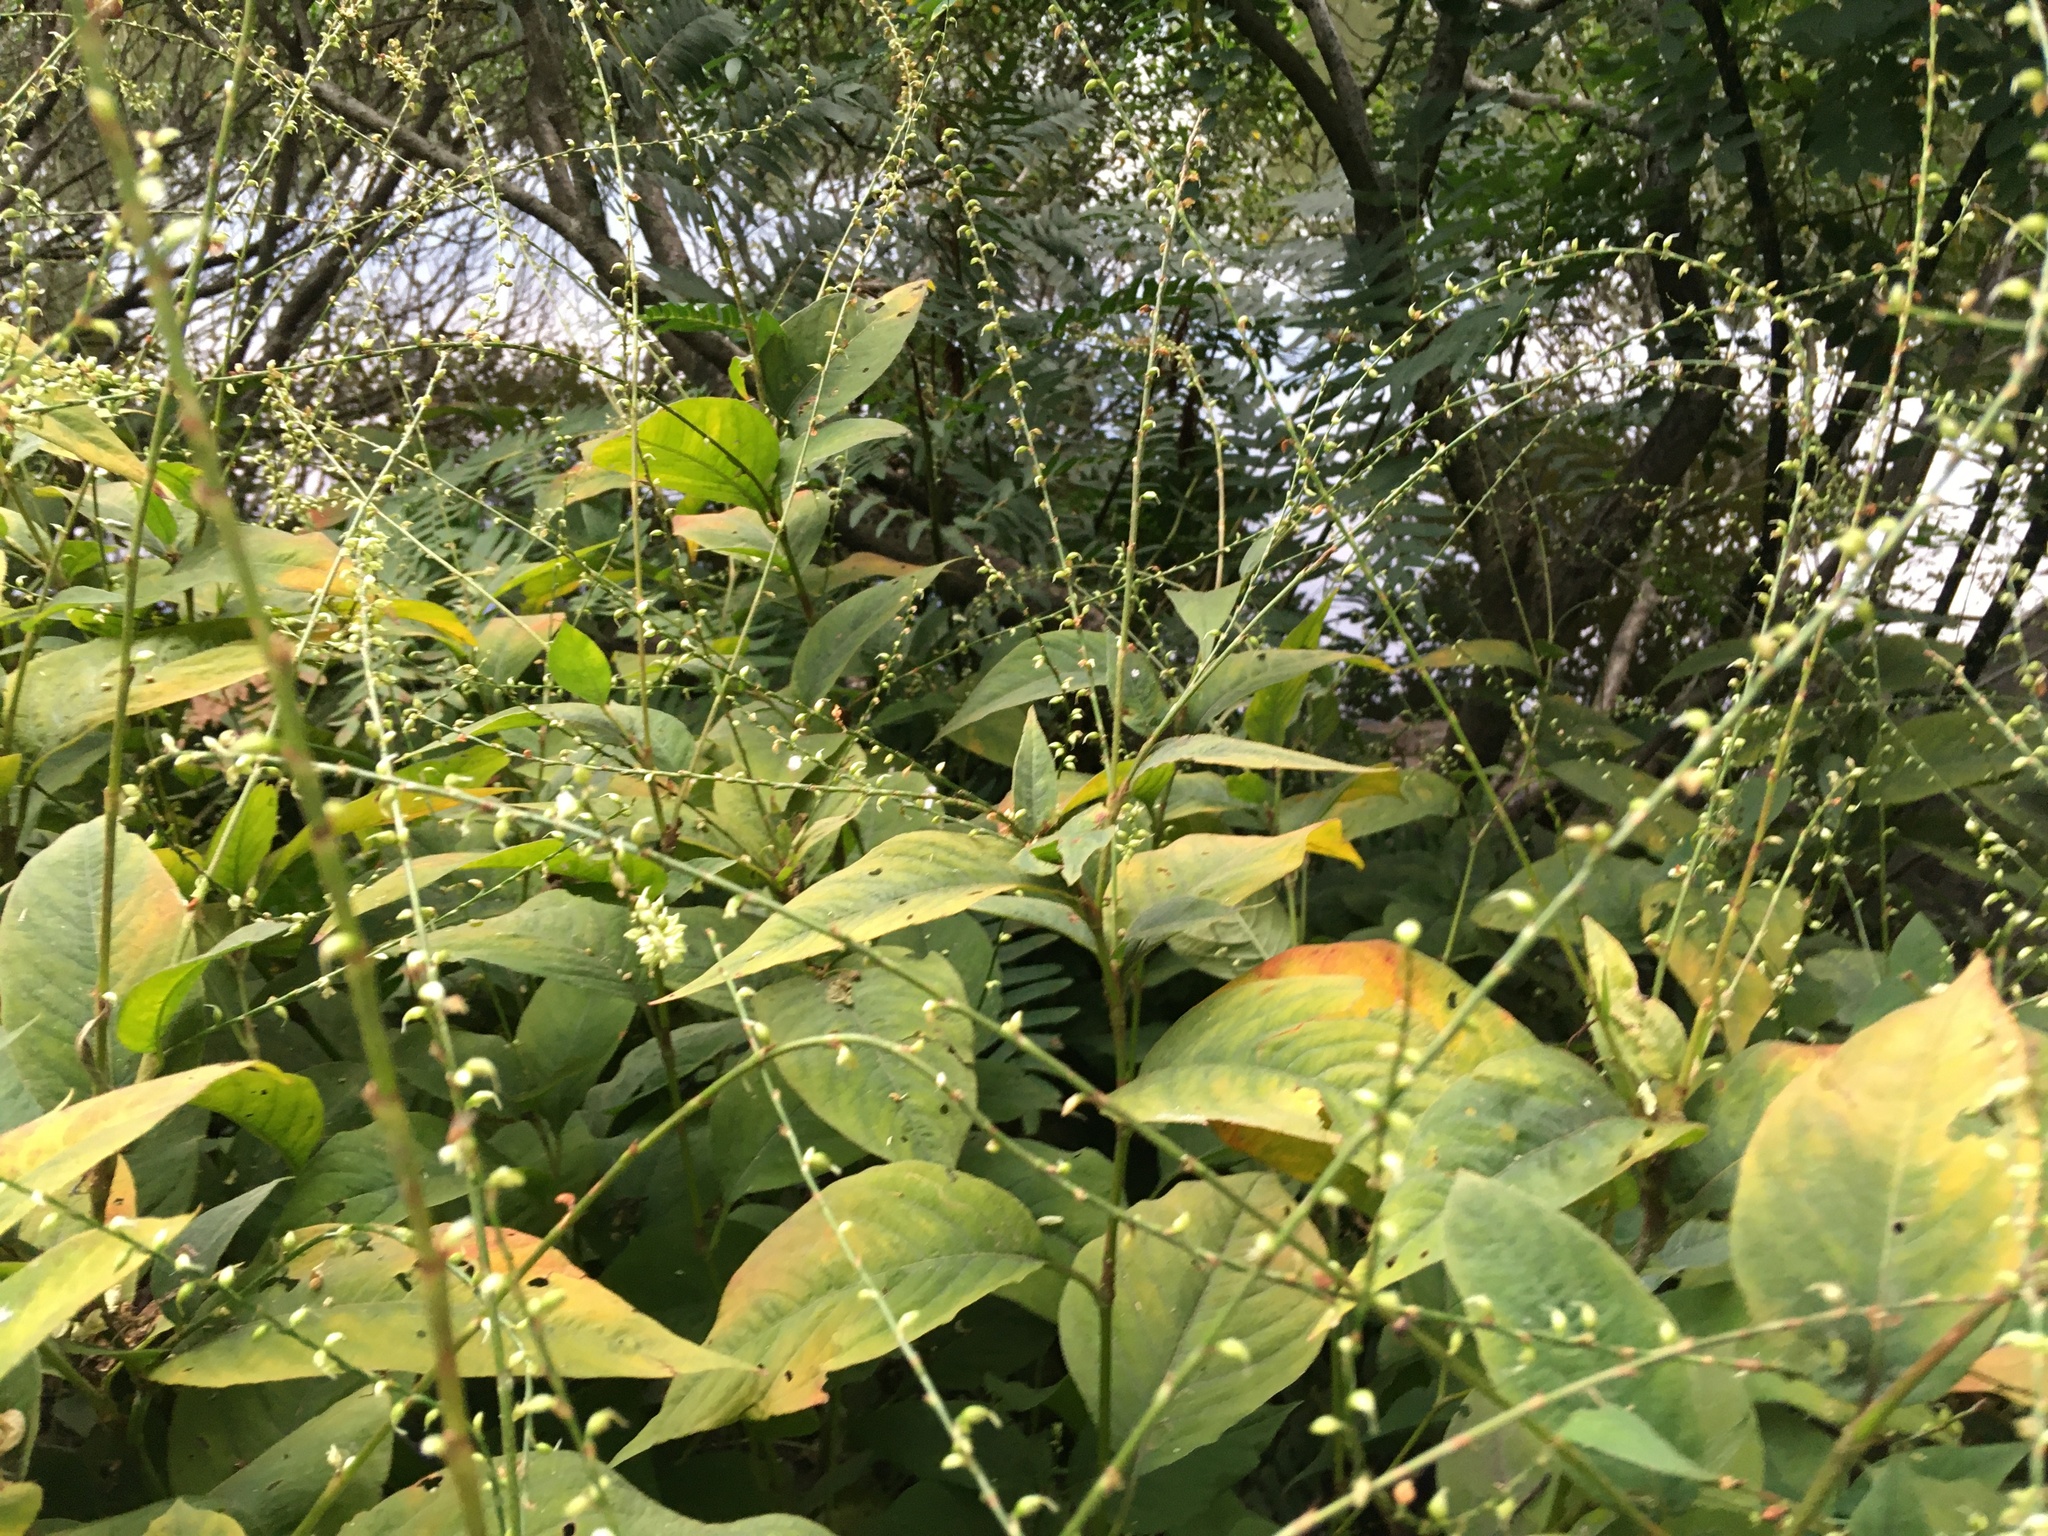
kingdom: Plantae
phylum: Tracheophyta
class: Magnoliopsida
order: Caryophyllales
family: Polygonaceae
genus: Persicaria
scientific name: Persicaria virginiana
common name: Jumpseed
